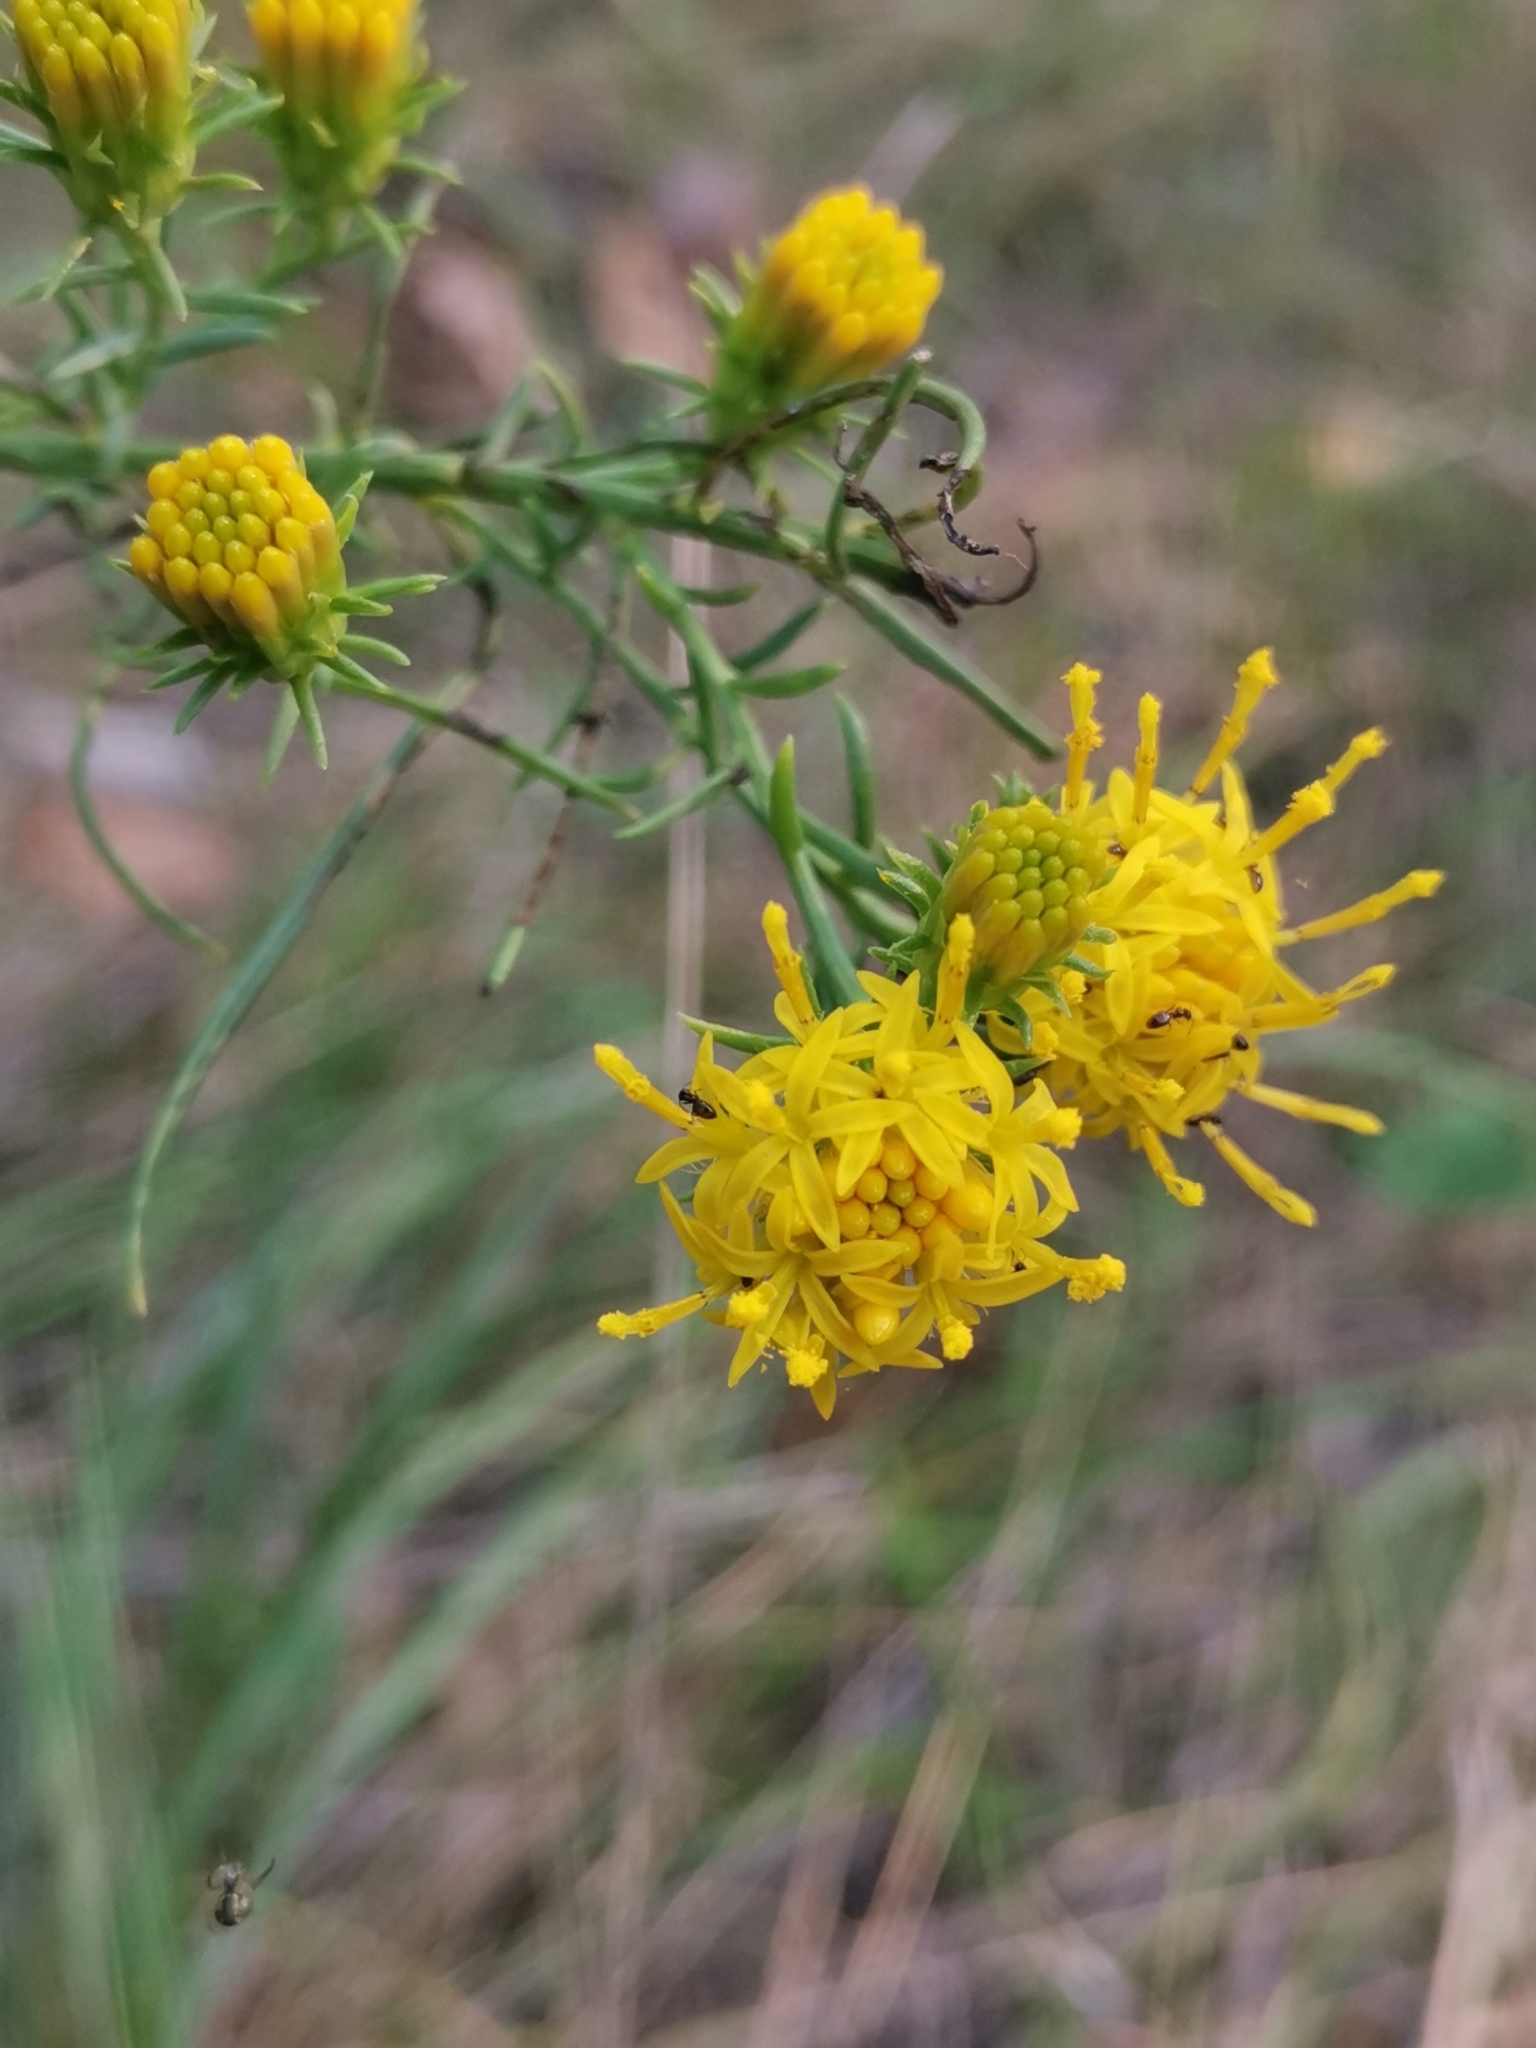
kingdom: Plantae
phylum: Tracheophyta
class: Magnoliopsida
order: Asterales
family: Asteraceae
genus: Galatella
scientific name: Galatella linosyris
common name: Goldilocks aster
